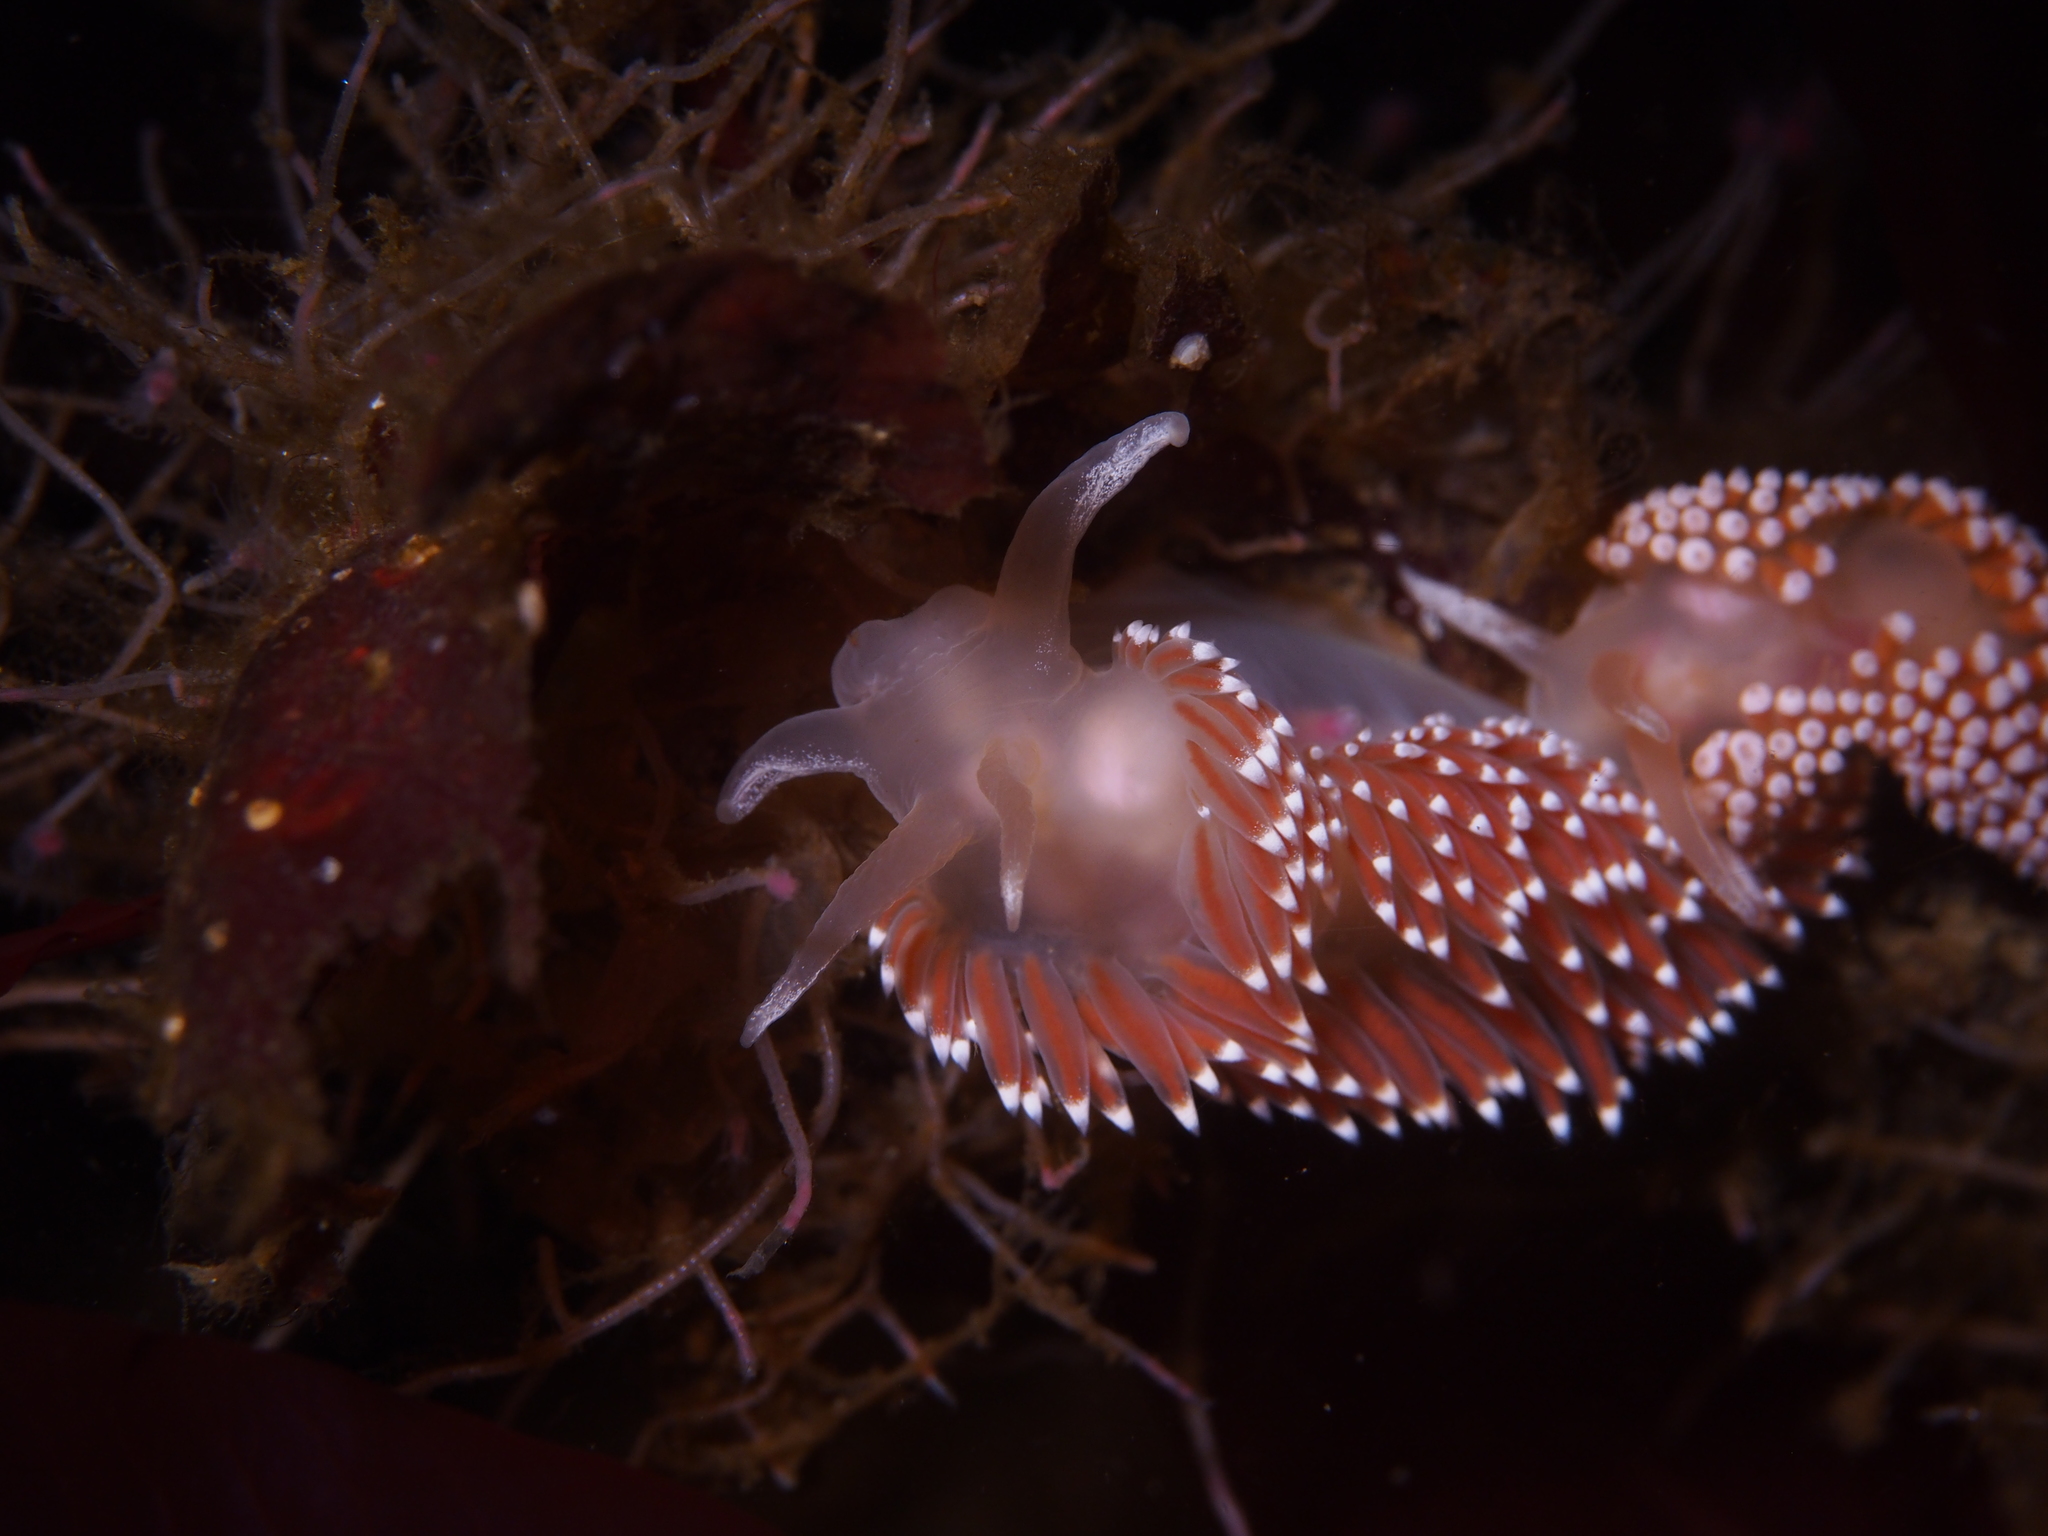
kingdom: Animalia
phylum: Mollusca
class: Gastropoda
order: Nudibranchia
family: Coryphellidae
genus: Coryphella
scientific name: Coryphella verrucosa
